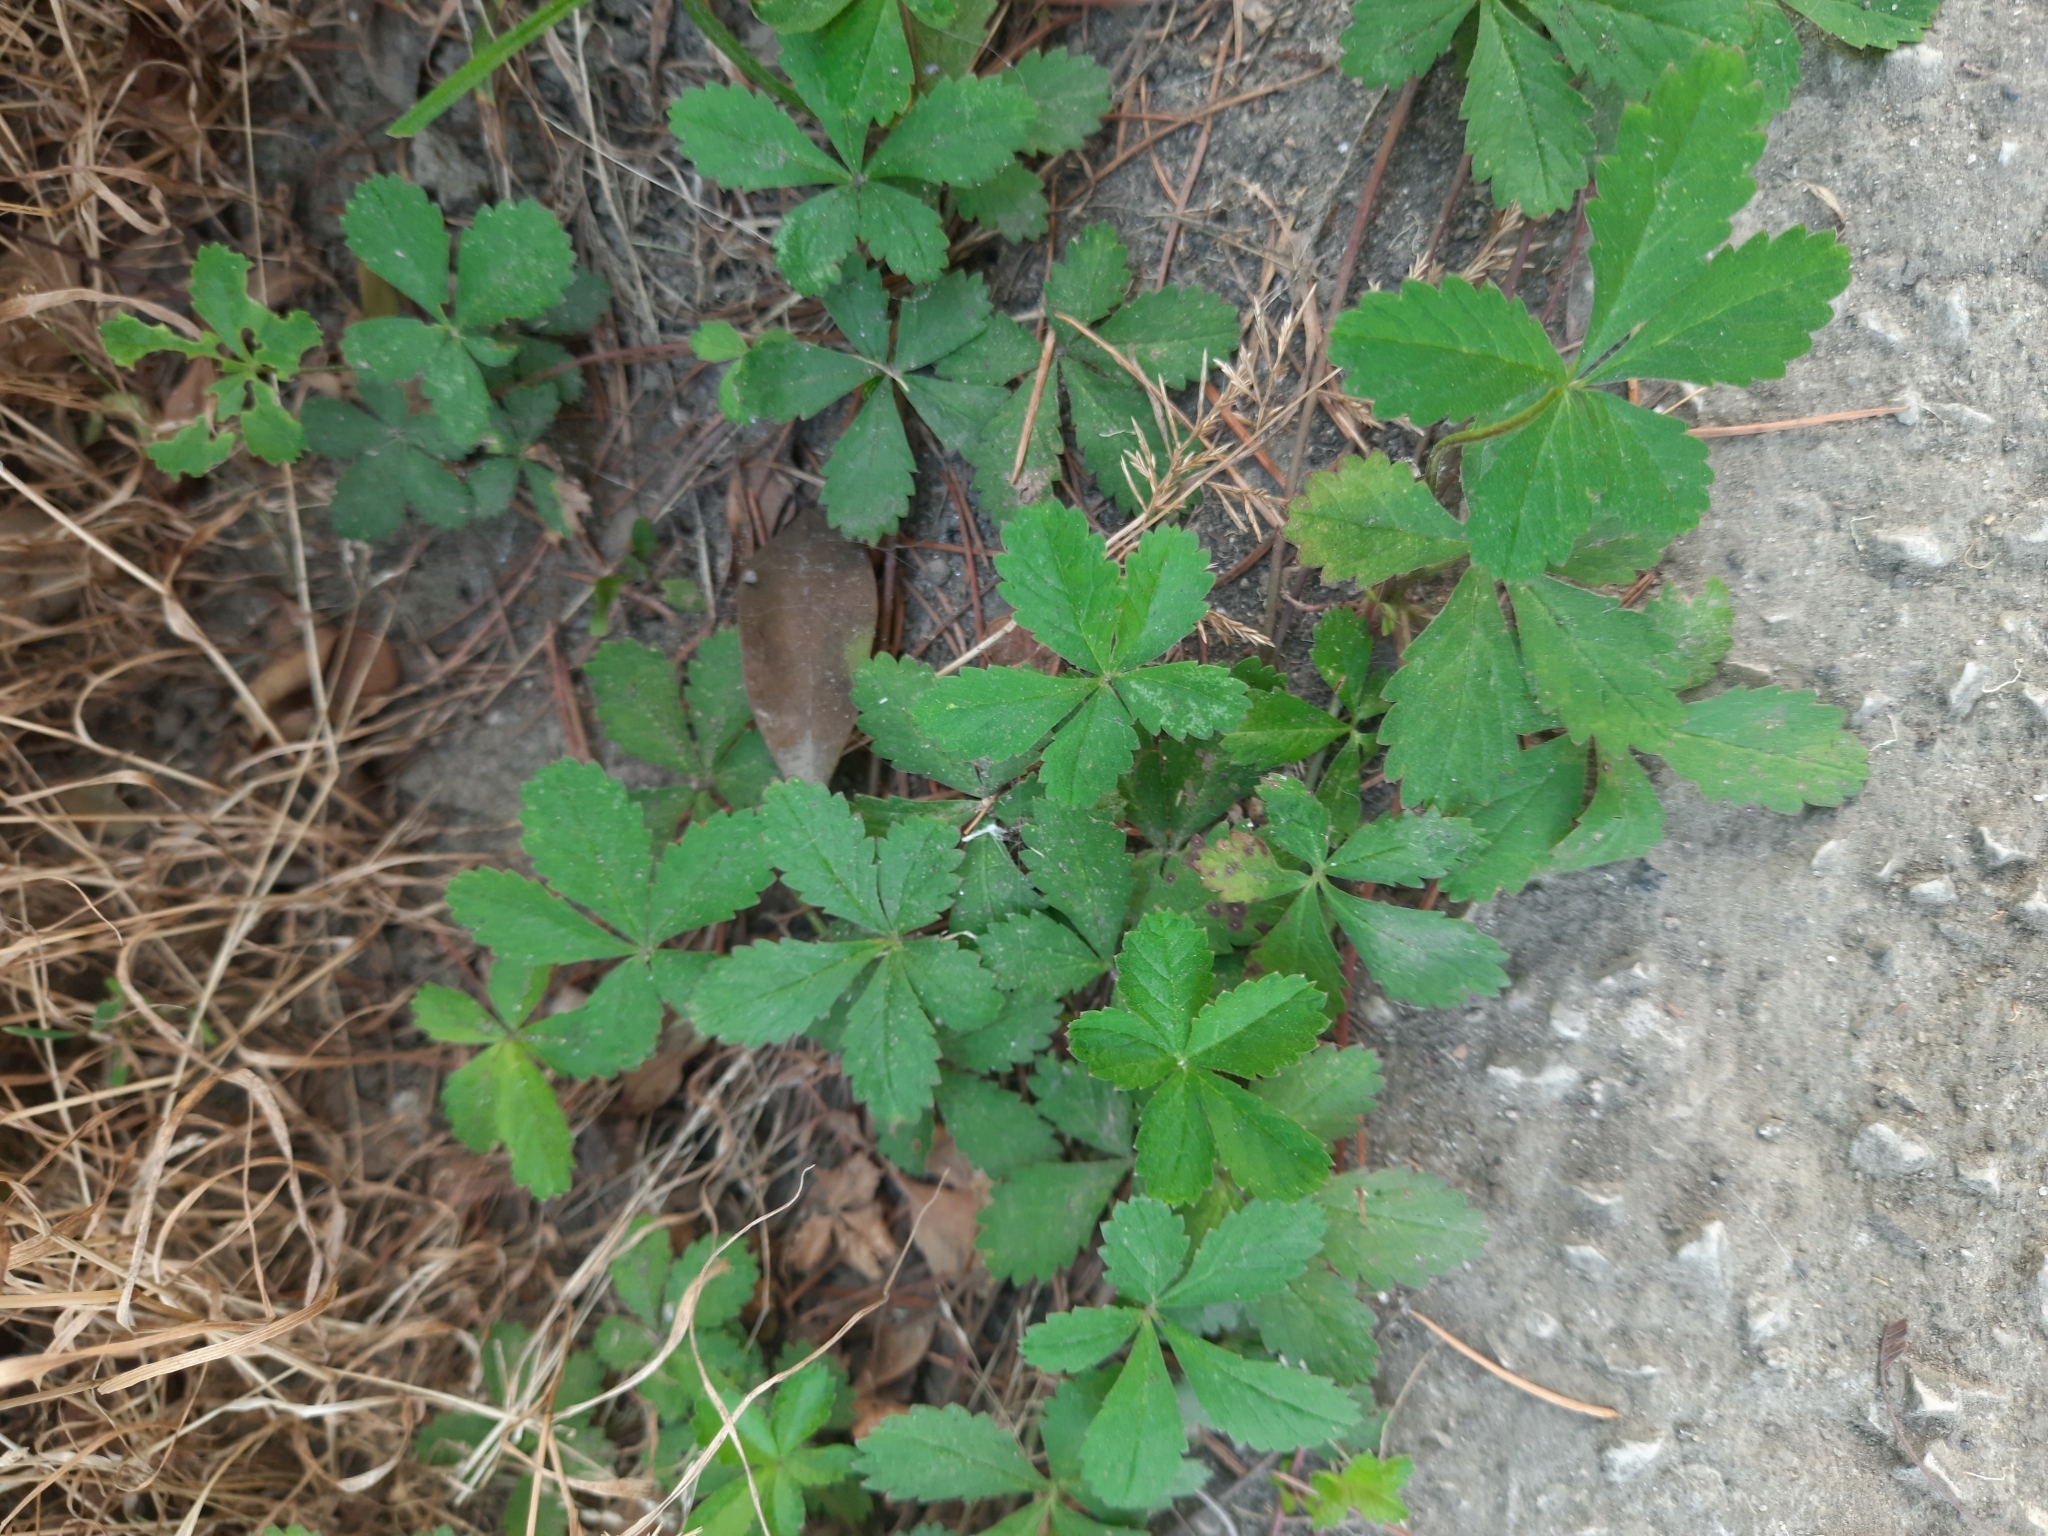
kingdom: Plantae
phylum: Tracheophyta
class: Magnoliopsida
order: Rosales
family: Rosaceae
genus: Potentilla
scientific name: Potentilla reptans
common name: Creeping cinquefoil
